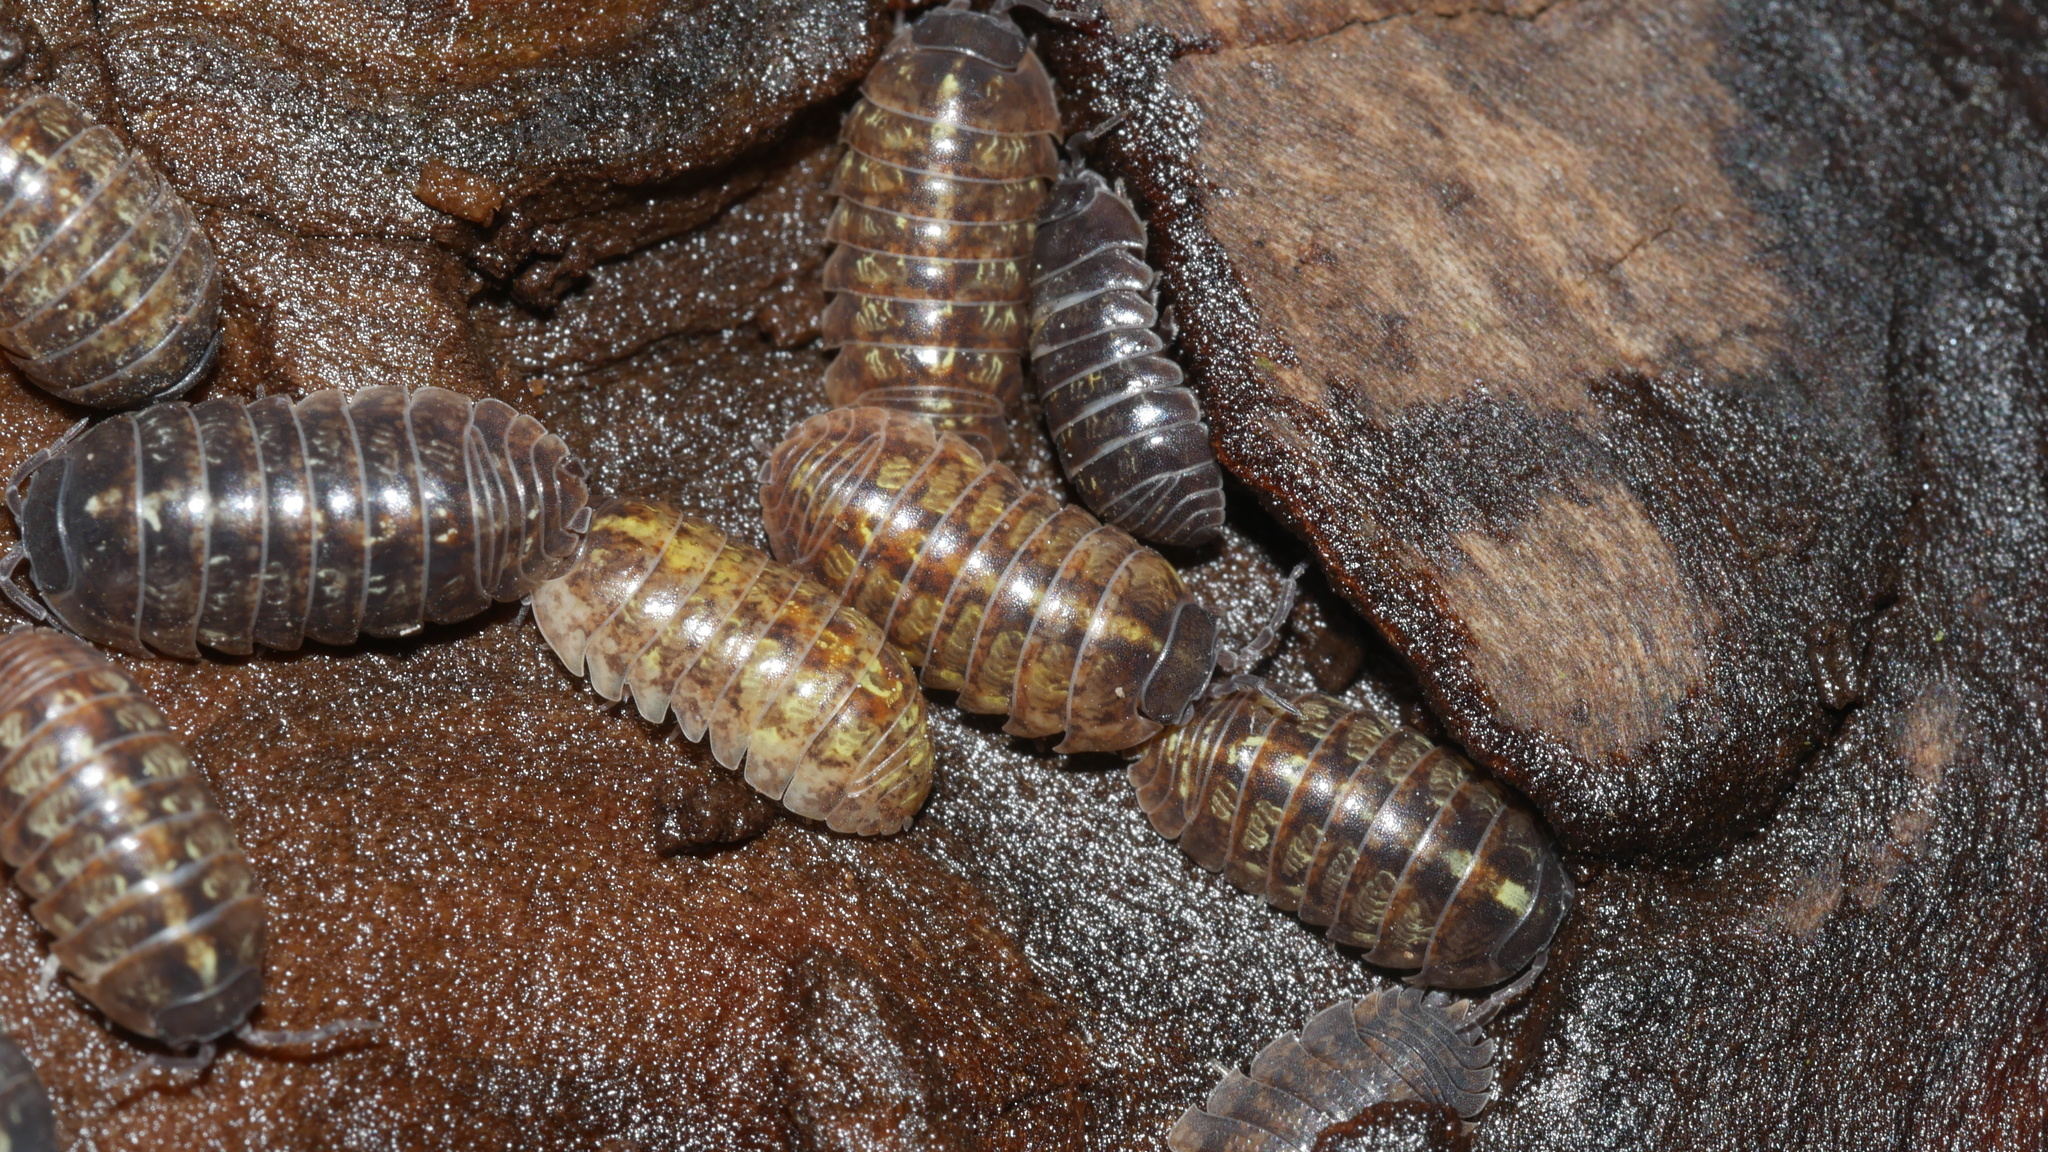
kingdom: Animalia
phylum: Arthropoda
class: Malacostraca
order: Isopoda
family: Armadillidiidae
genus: Armadillidium
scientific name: Armadillidium vulgare
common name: Common pill woodlouse
